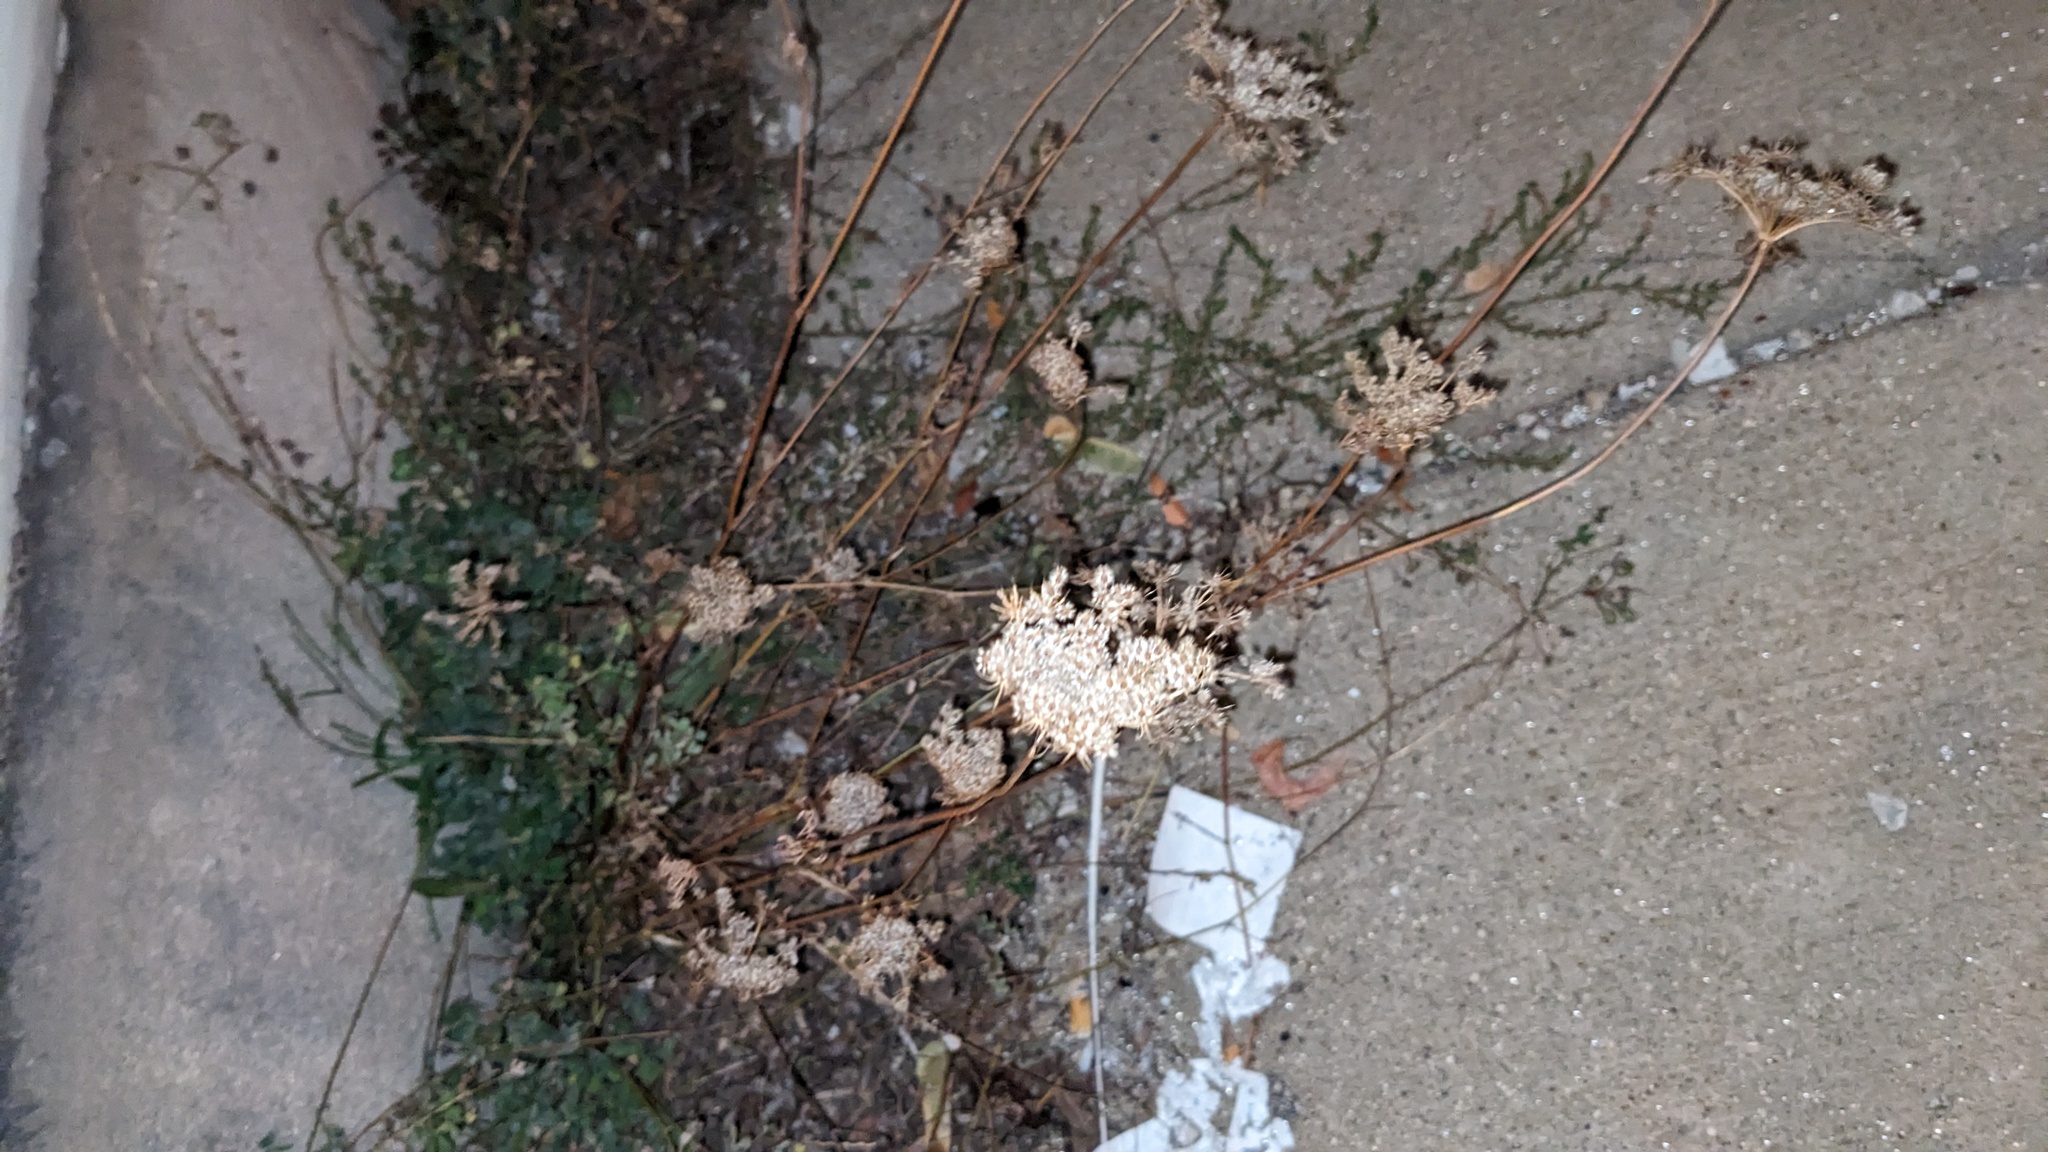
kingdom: Plantae
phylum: Tracheophyta
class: Magnoliopsida
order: Apiales
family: Apiaceae
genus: Daucus
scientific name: Daucus carota
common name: Wild carrot
